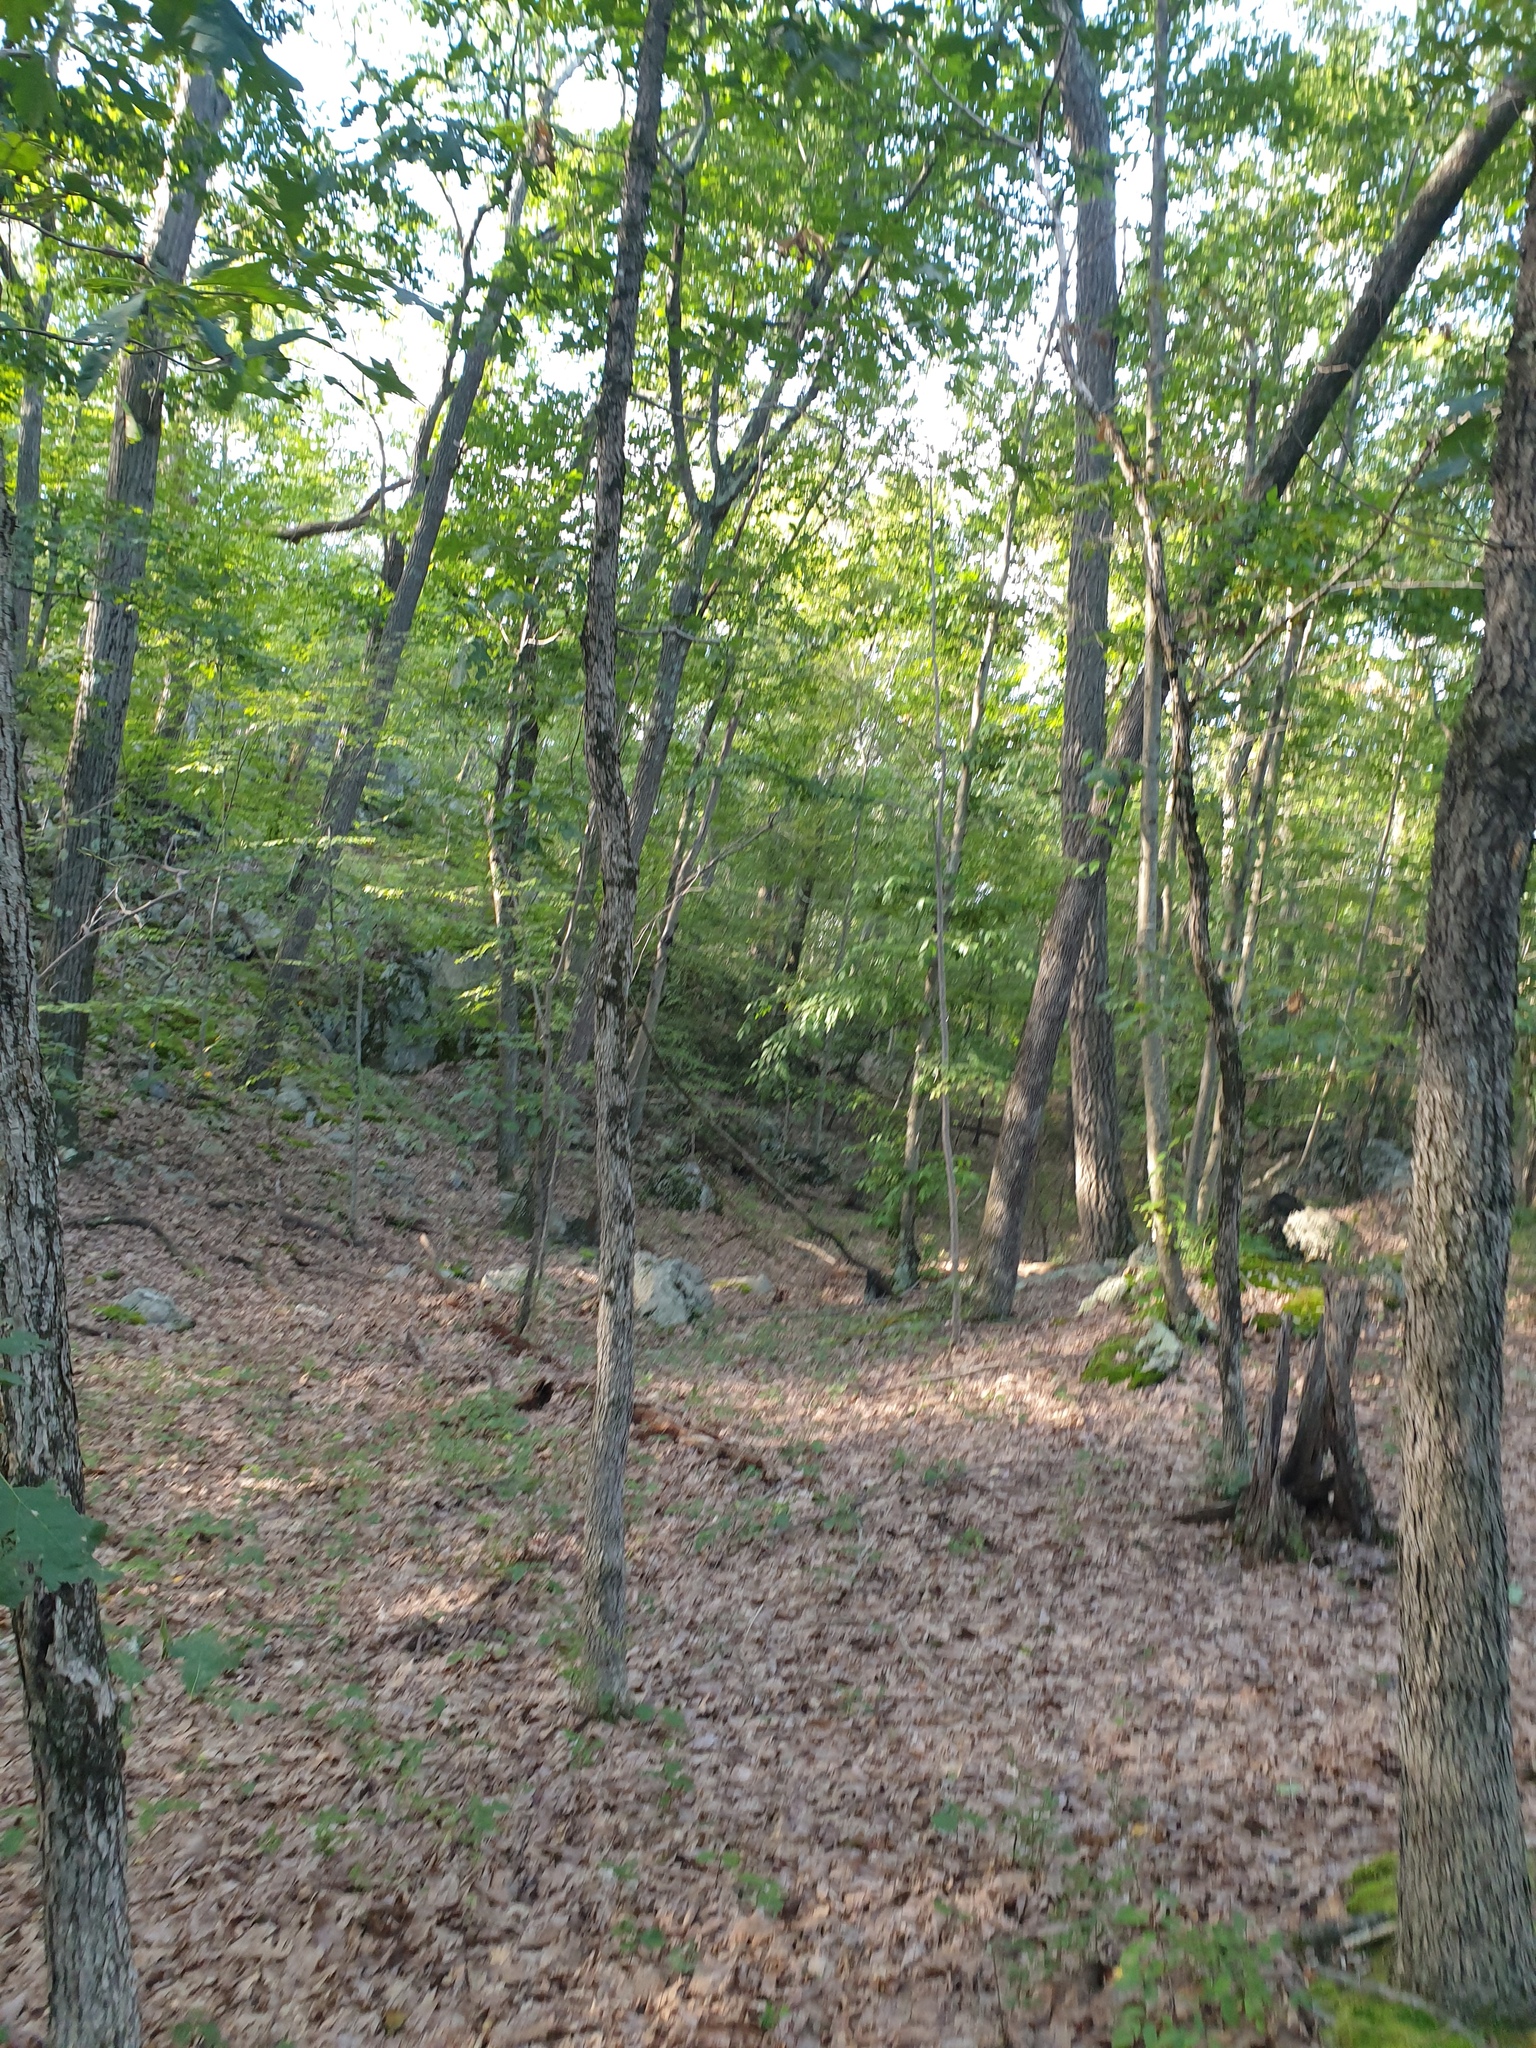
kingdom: Plantae
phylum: Tracheophyta
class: Magnoliopsida
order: Saxifragales
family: Hamamelidaceae
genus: Hamamelis
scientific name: Hamamelis virginiana
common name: Witch-hazel
